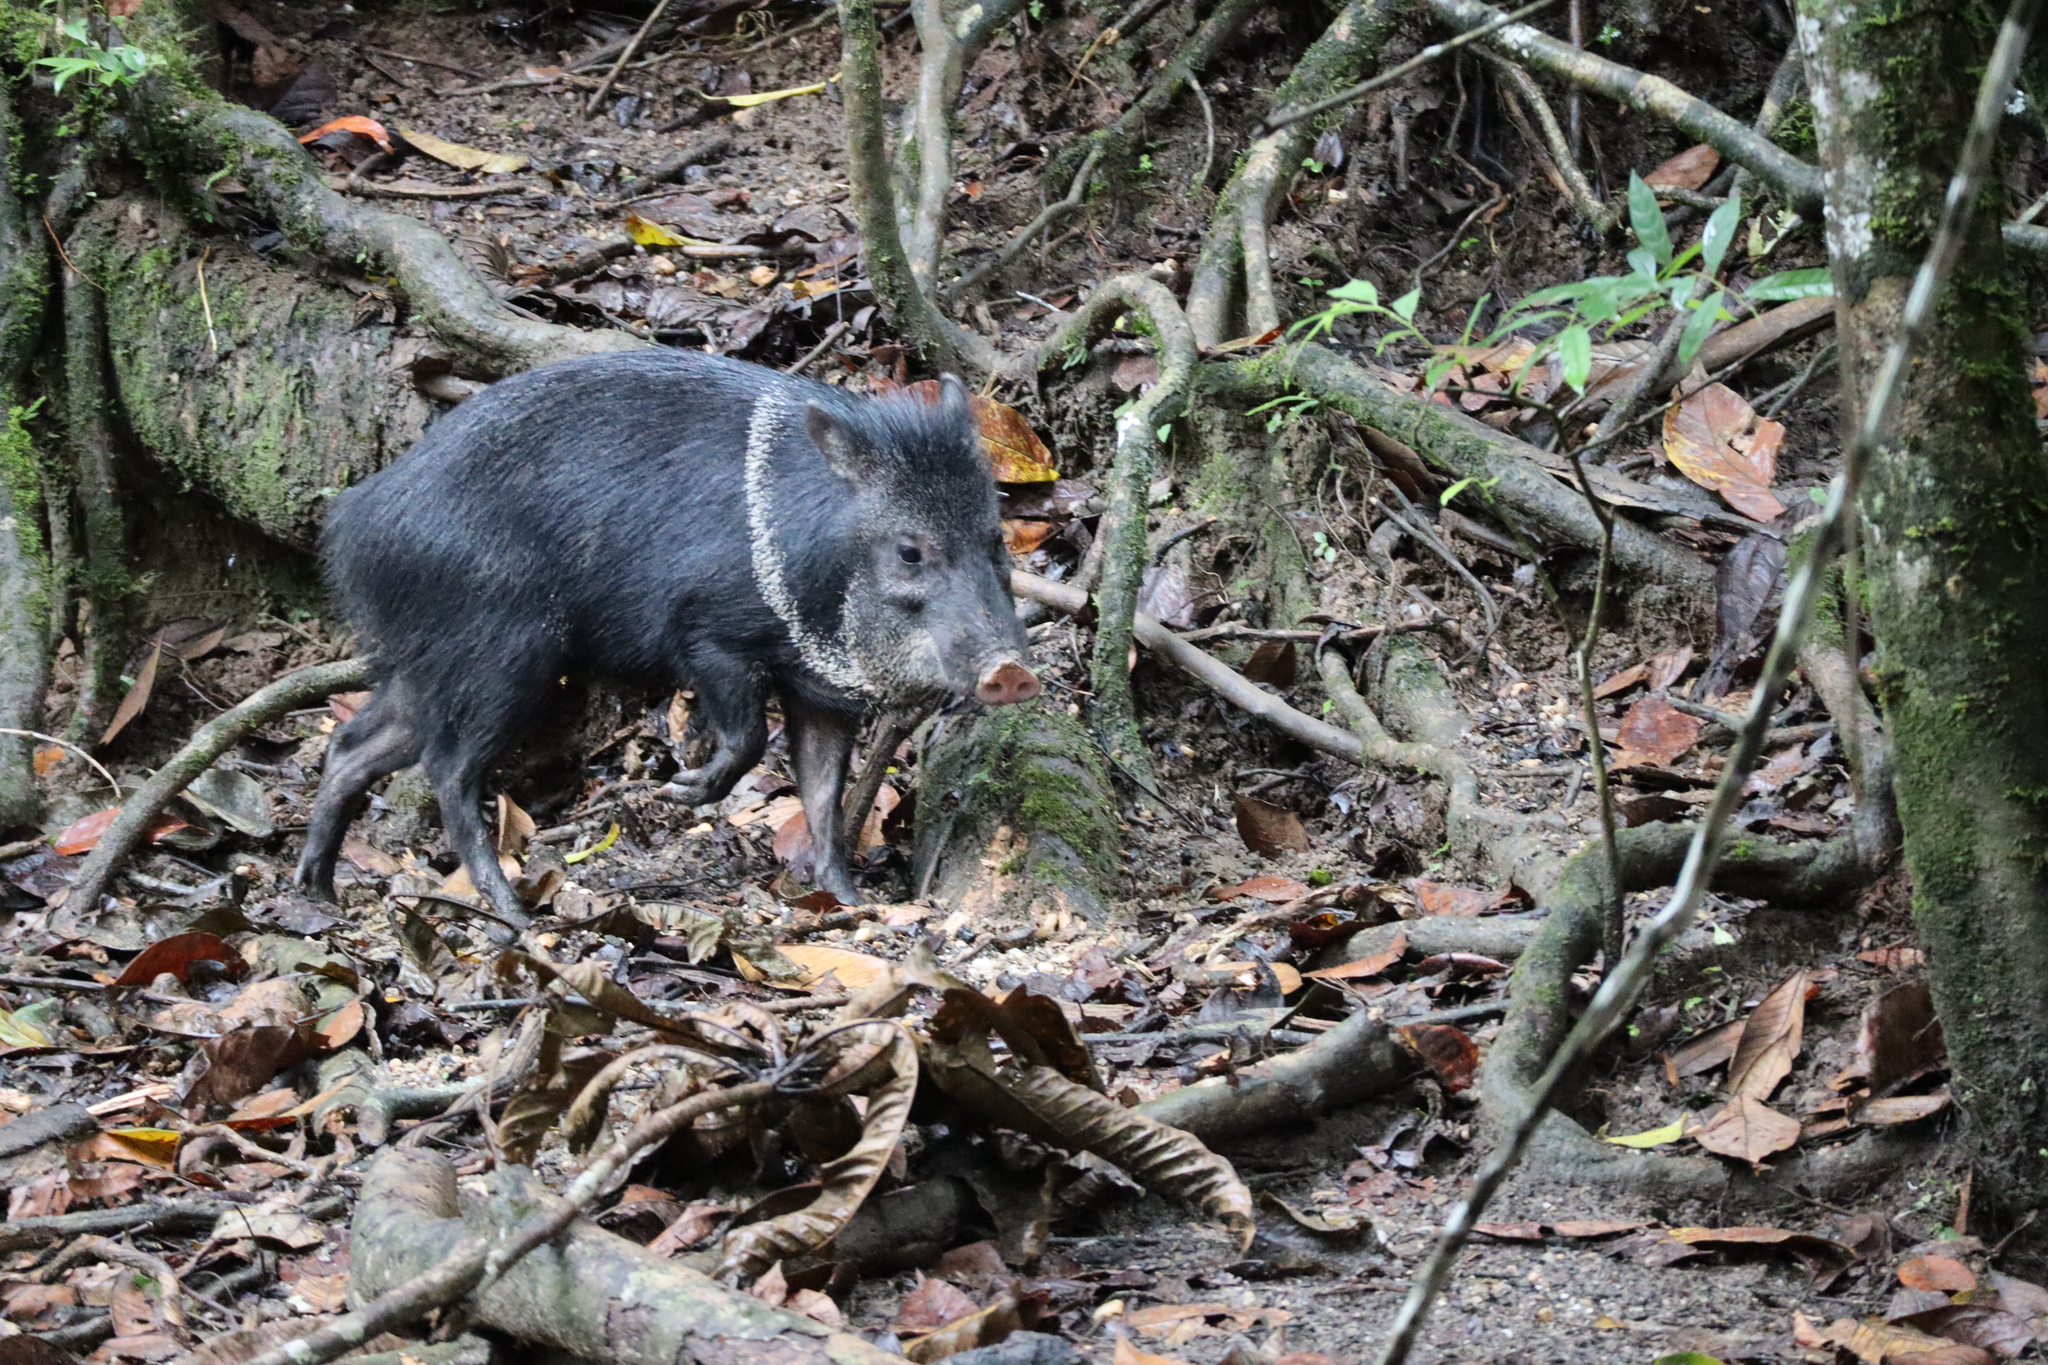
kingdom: Animalia
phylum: Chordata
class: Mammalia
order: Artiodactyla
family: Tayassuidae
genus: Pecari
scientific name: Pecari tajacu
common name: Collared peccary
